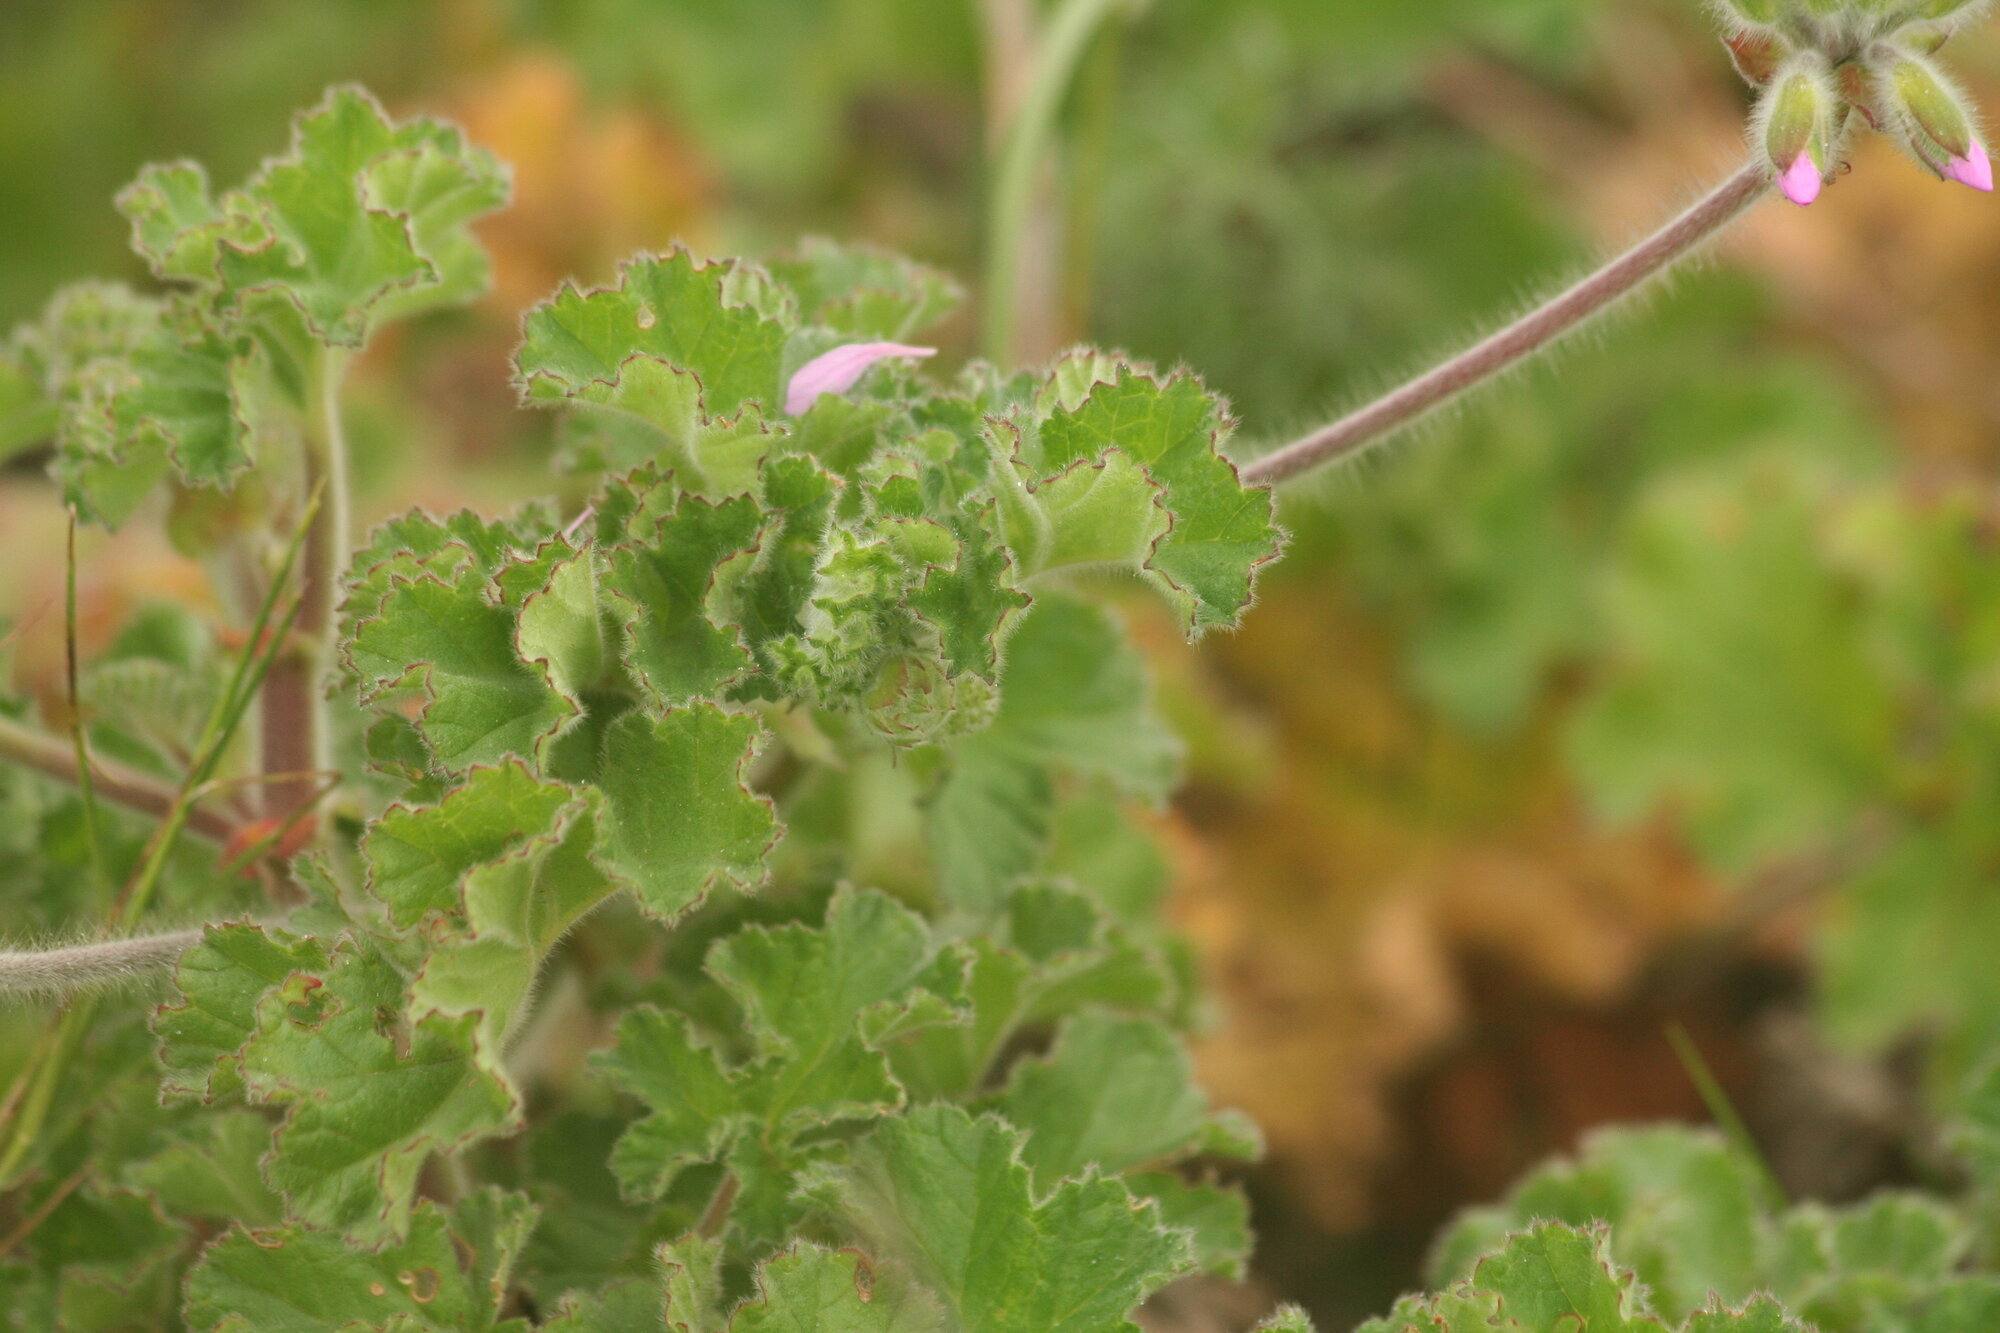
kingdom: Plantae
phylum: Tracheophyta
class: Magnoliopsida
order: Geraniales
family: Geraniaceae
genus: Pelargonium
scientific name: Pelargonium capitatum
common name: Rose scented geranium
